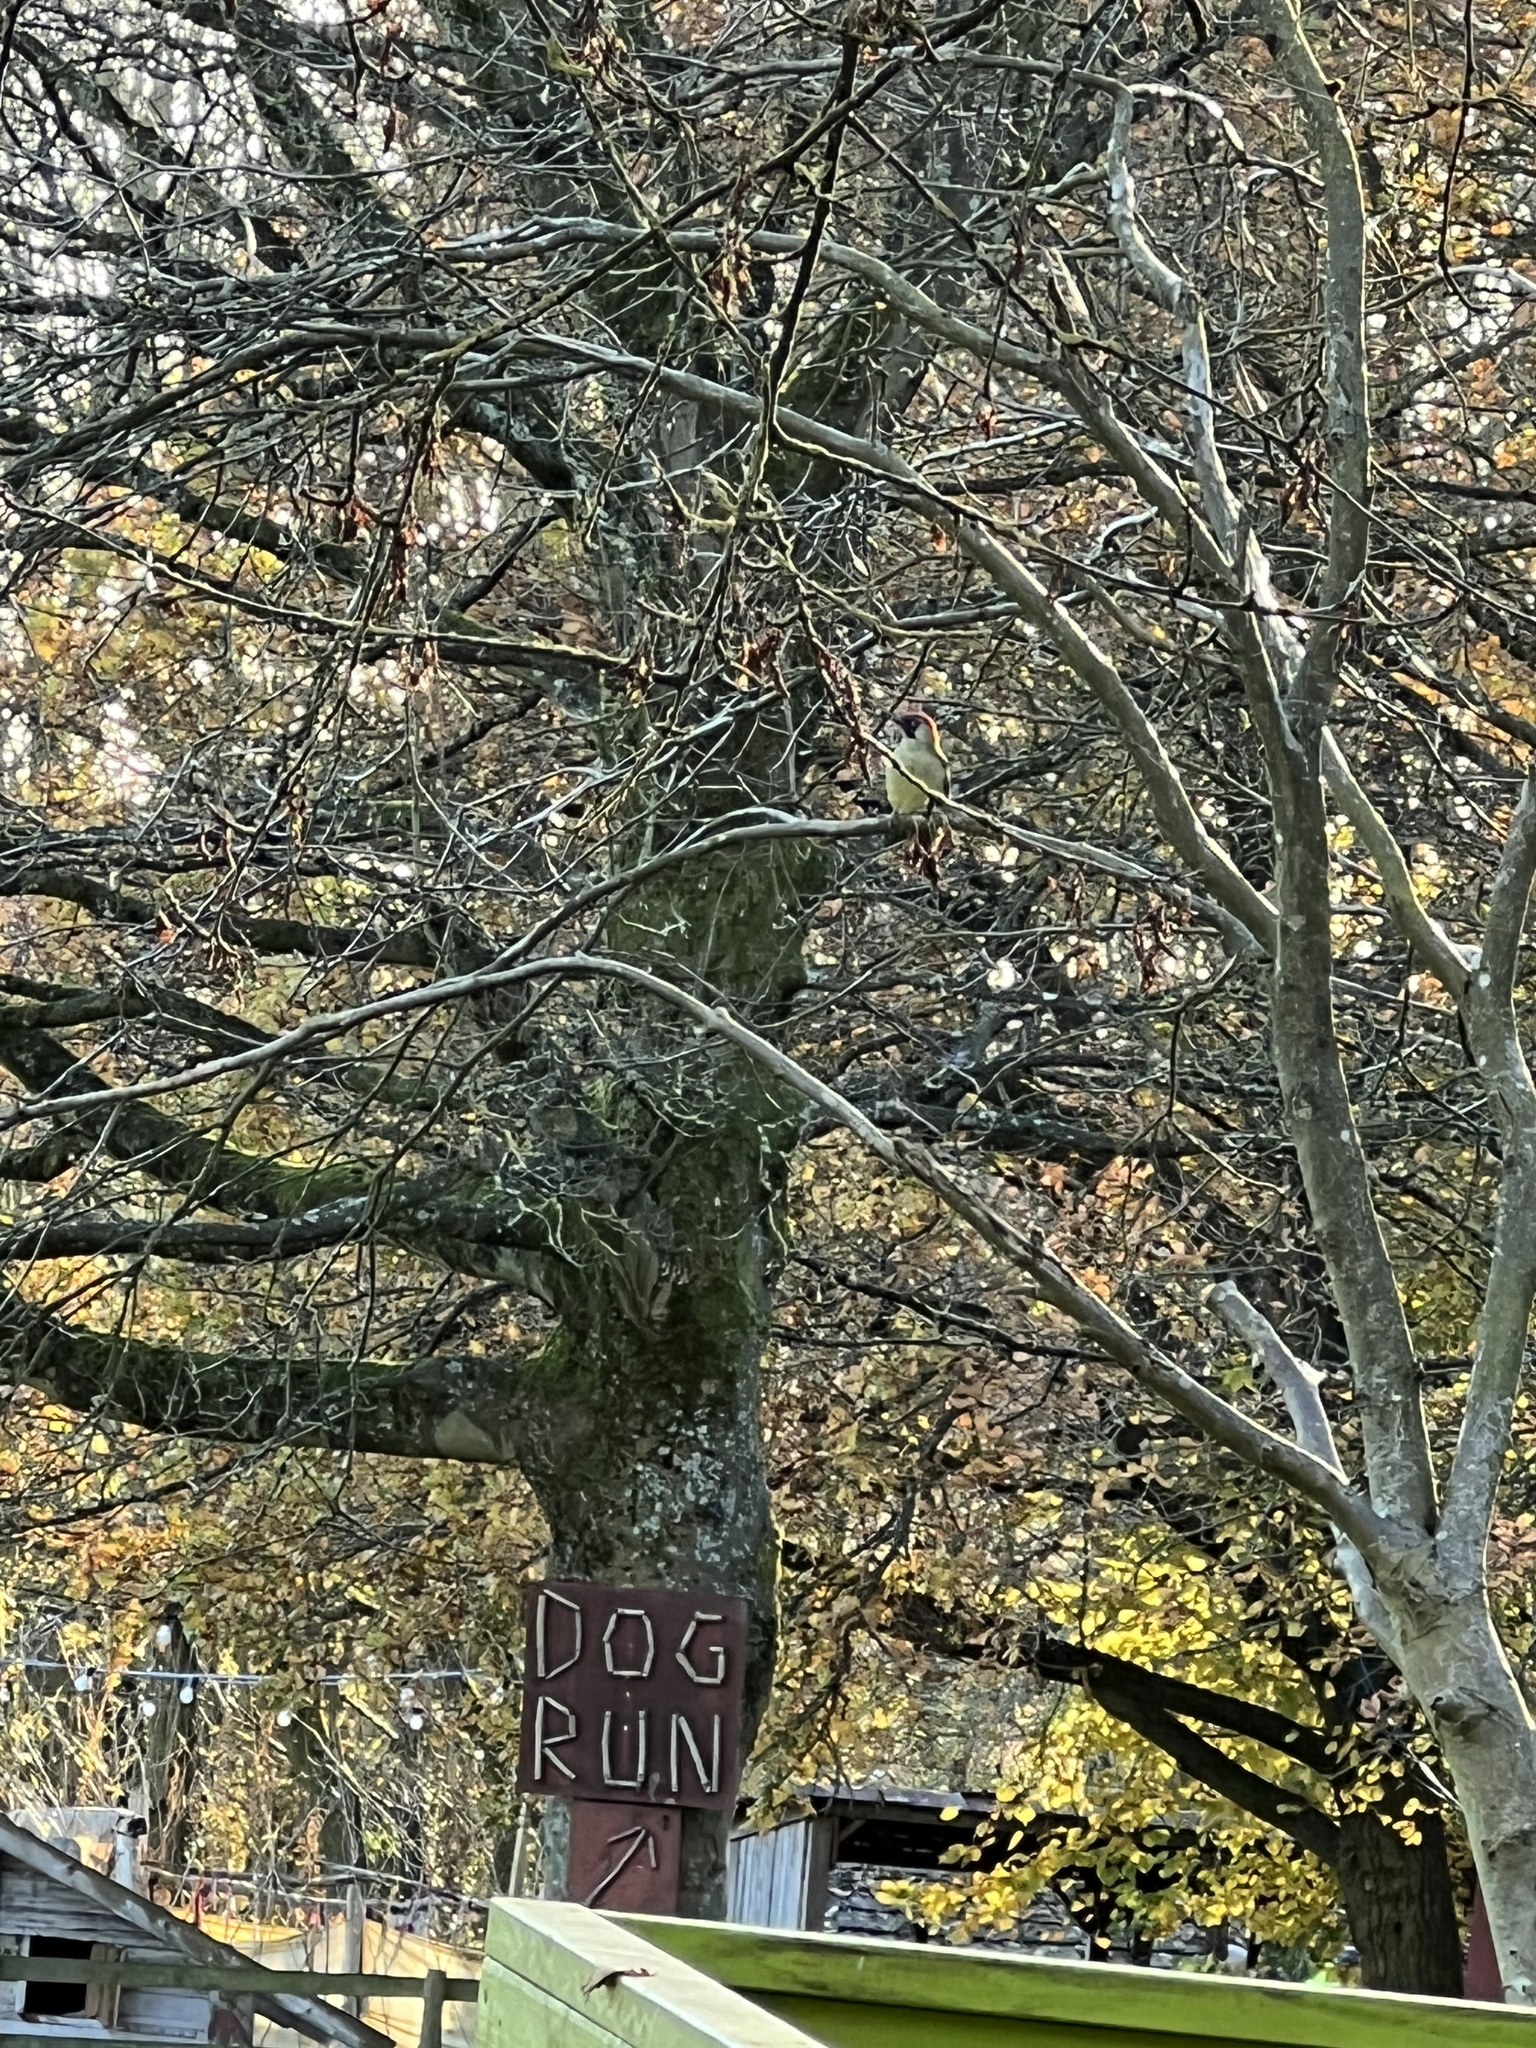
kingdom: Animalia
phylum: Chordata
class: Aves
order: Piciformes
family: Picidae
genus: Picus
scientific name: Picus viridis
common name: European green woodpecker
